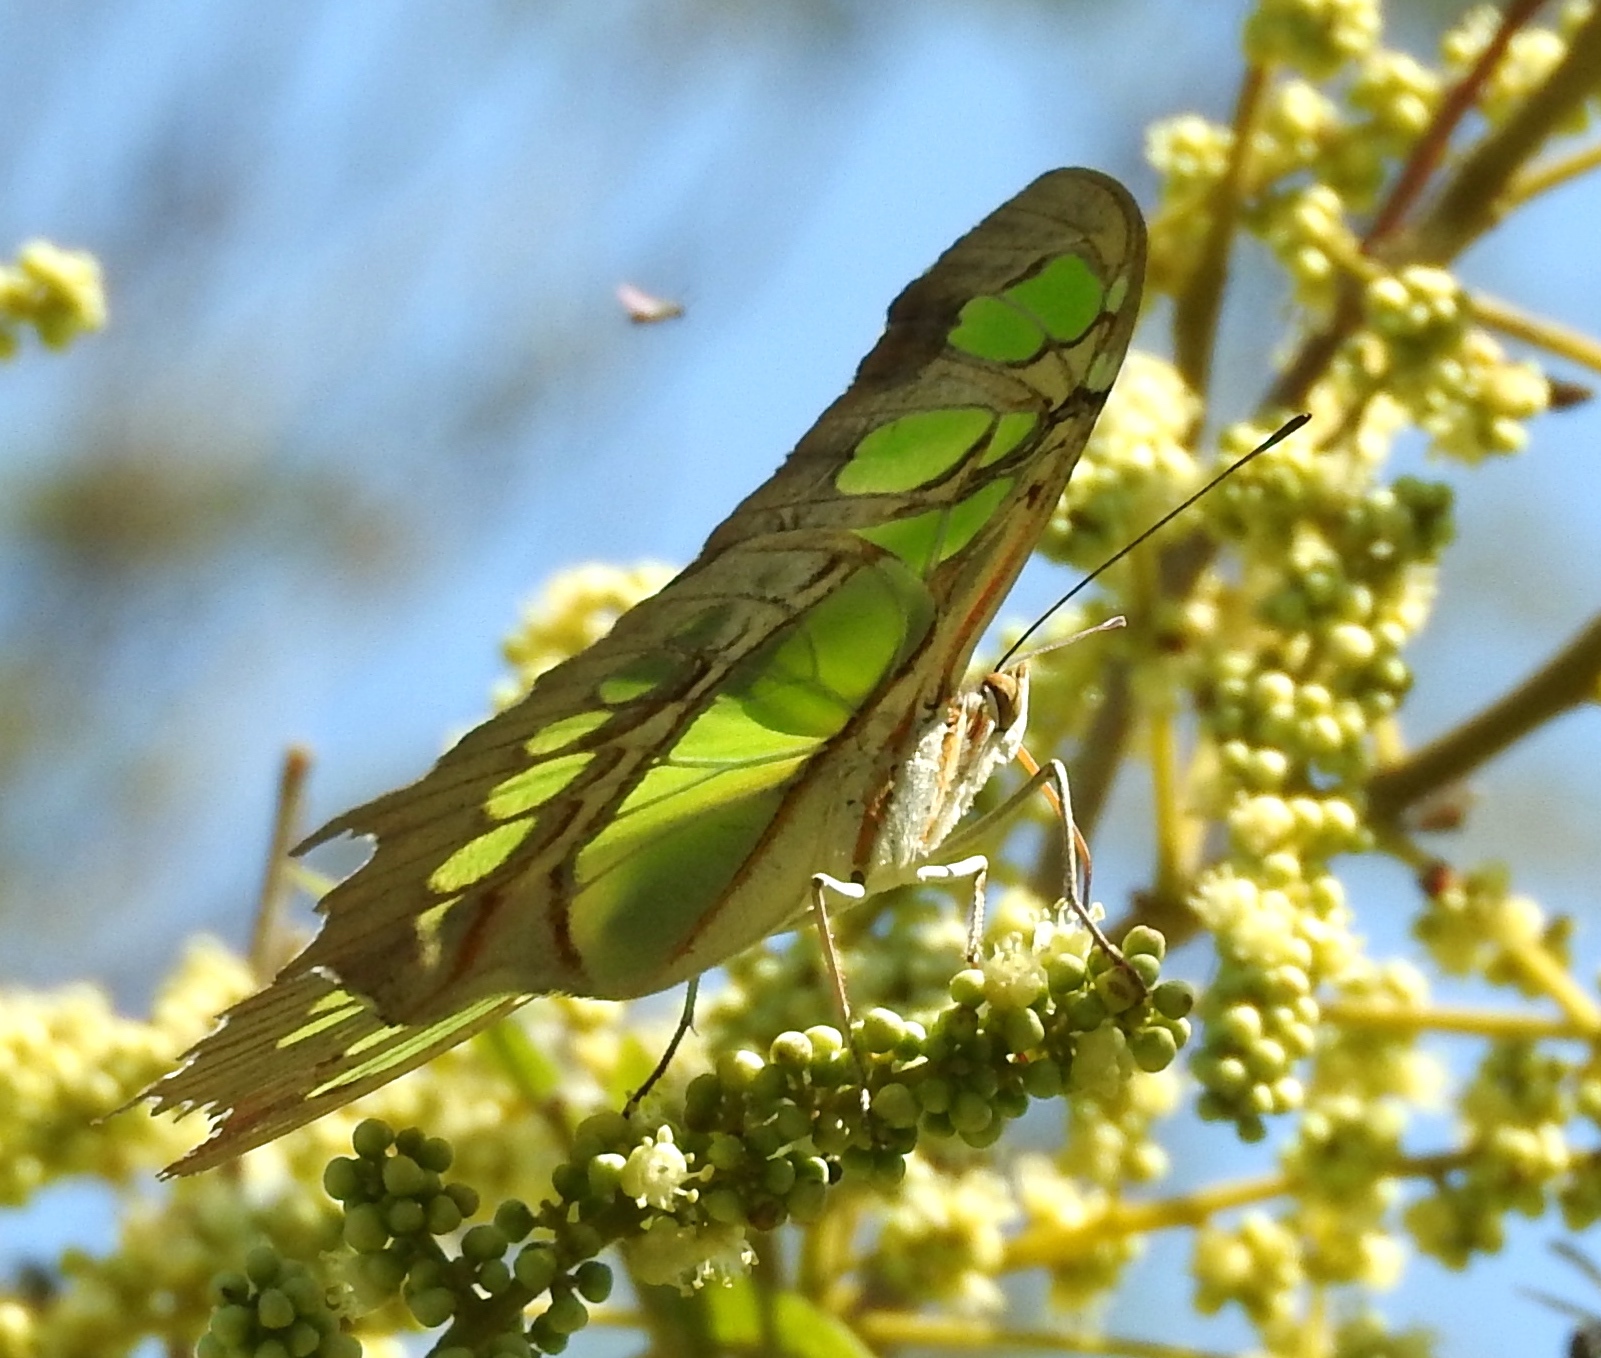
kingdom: Plantae
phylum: Tracheophyta
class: Magnoliopsida
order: Sapindales
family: Sapindaceae
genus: Sapindus
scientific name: Sapindus drummondii
